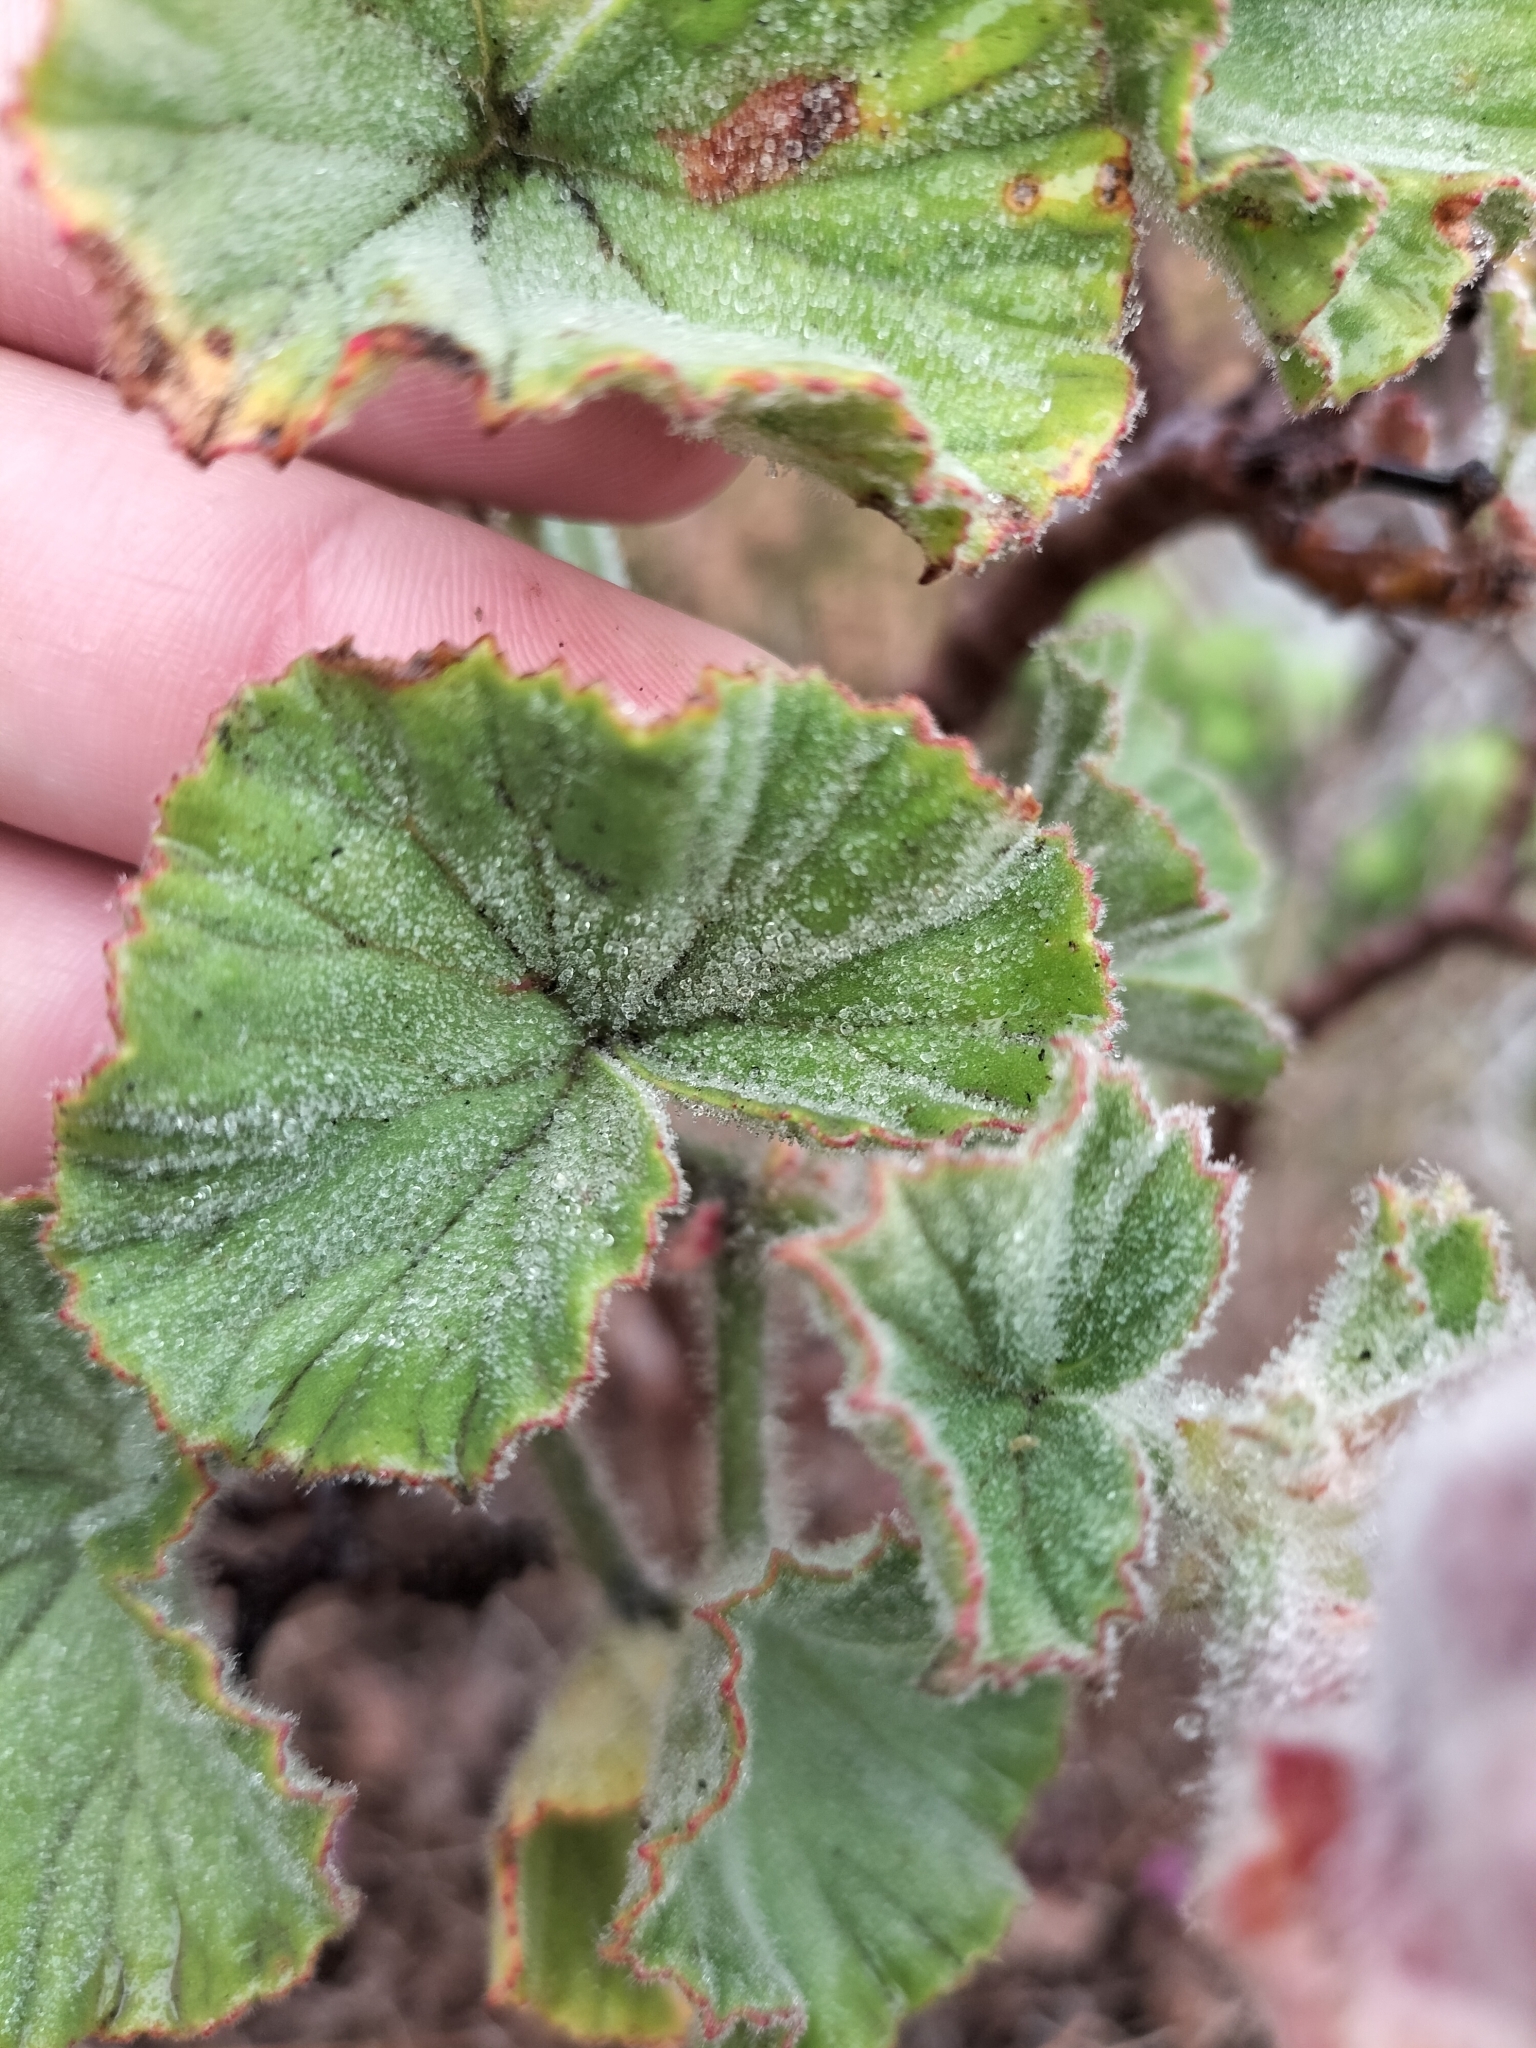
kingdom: Plantae
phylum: Tracheophyta
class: Magnoliopsida
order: Geraniales
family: Geraniaceae
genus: Pelargonium
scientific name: Pelargonium cucullatum
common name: Tree pelargonium
